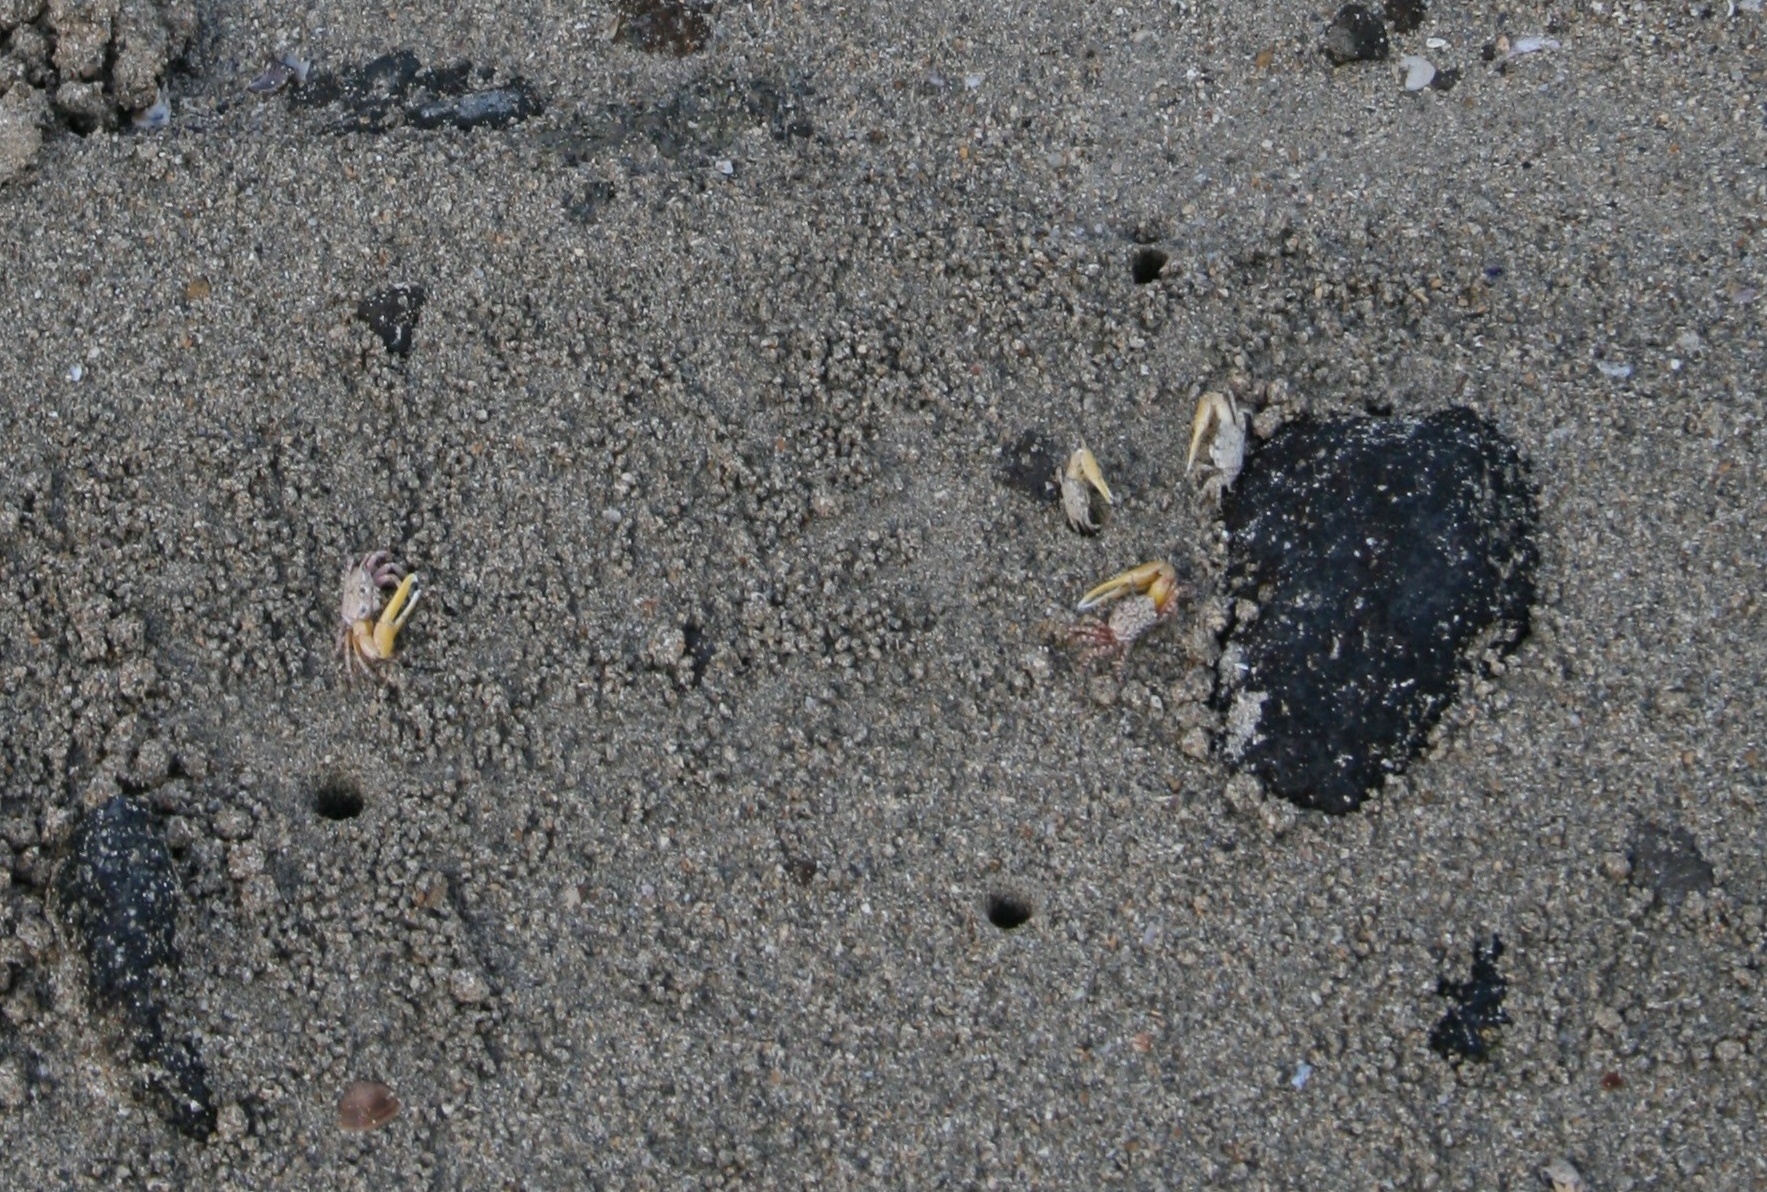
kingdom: Animalia
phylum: Arthropoda
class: Malacostraca
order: Decapoda
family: Ocypodidae
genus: Austruca
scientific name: Austruca citrus
